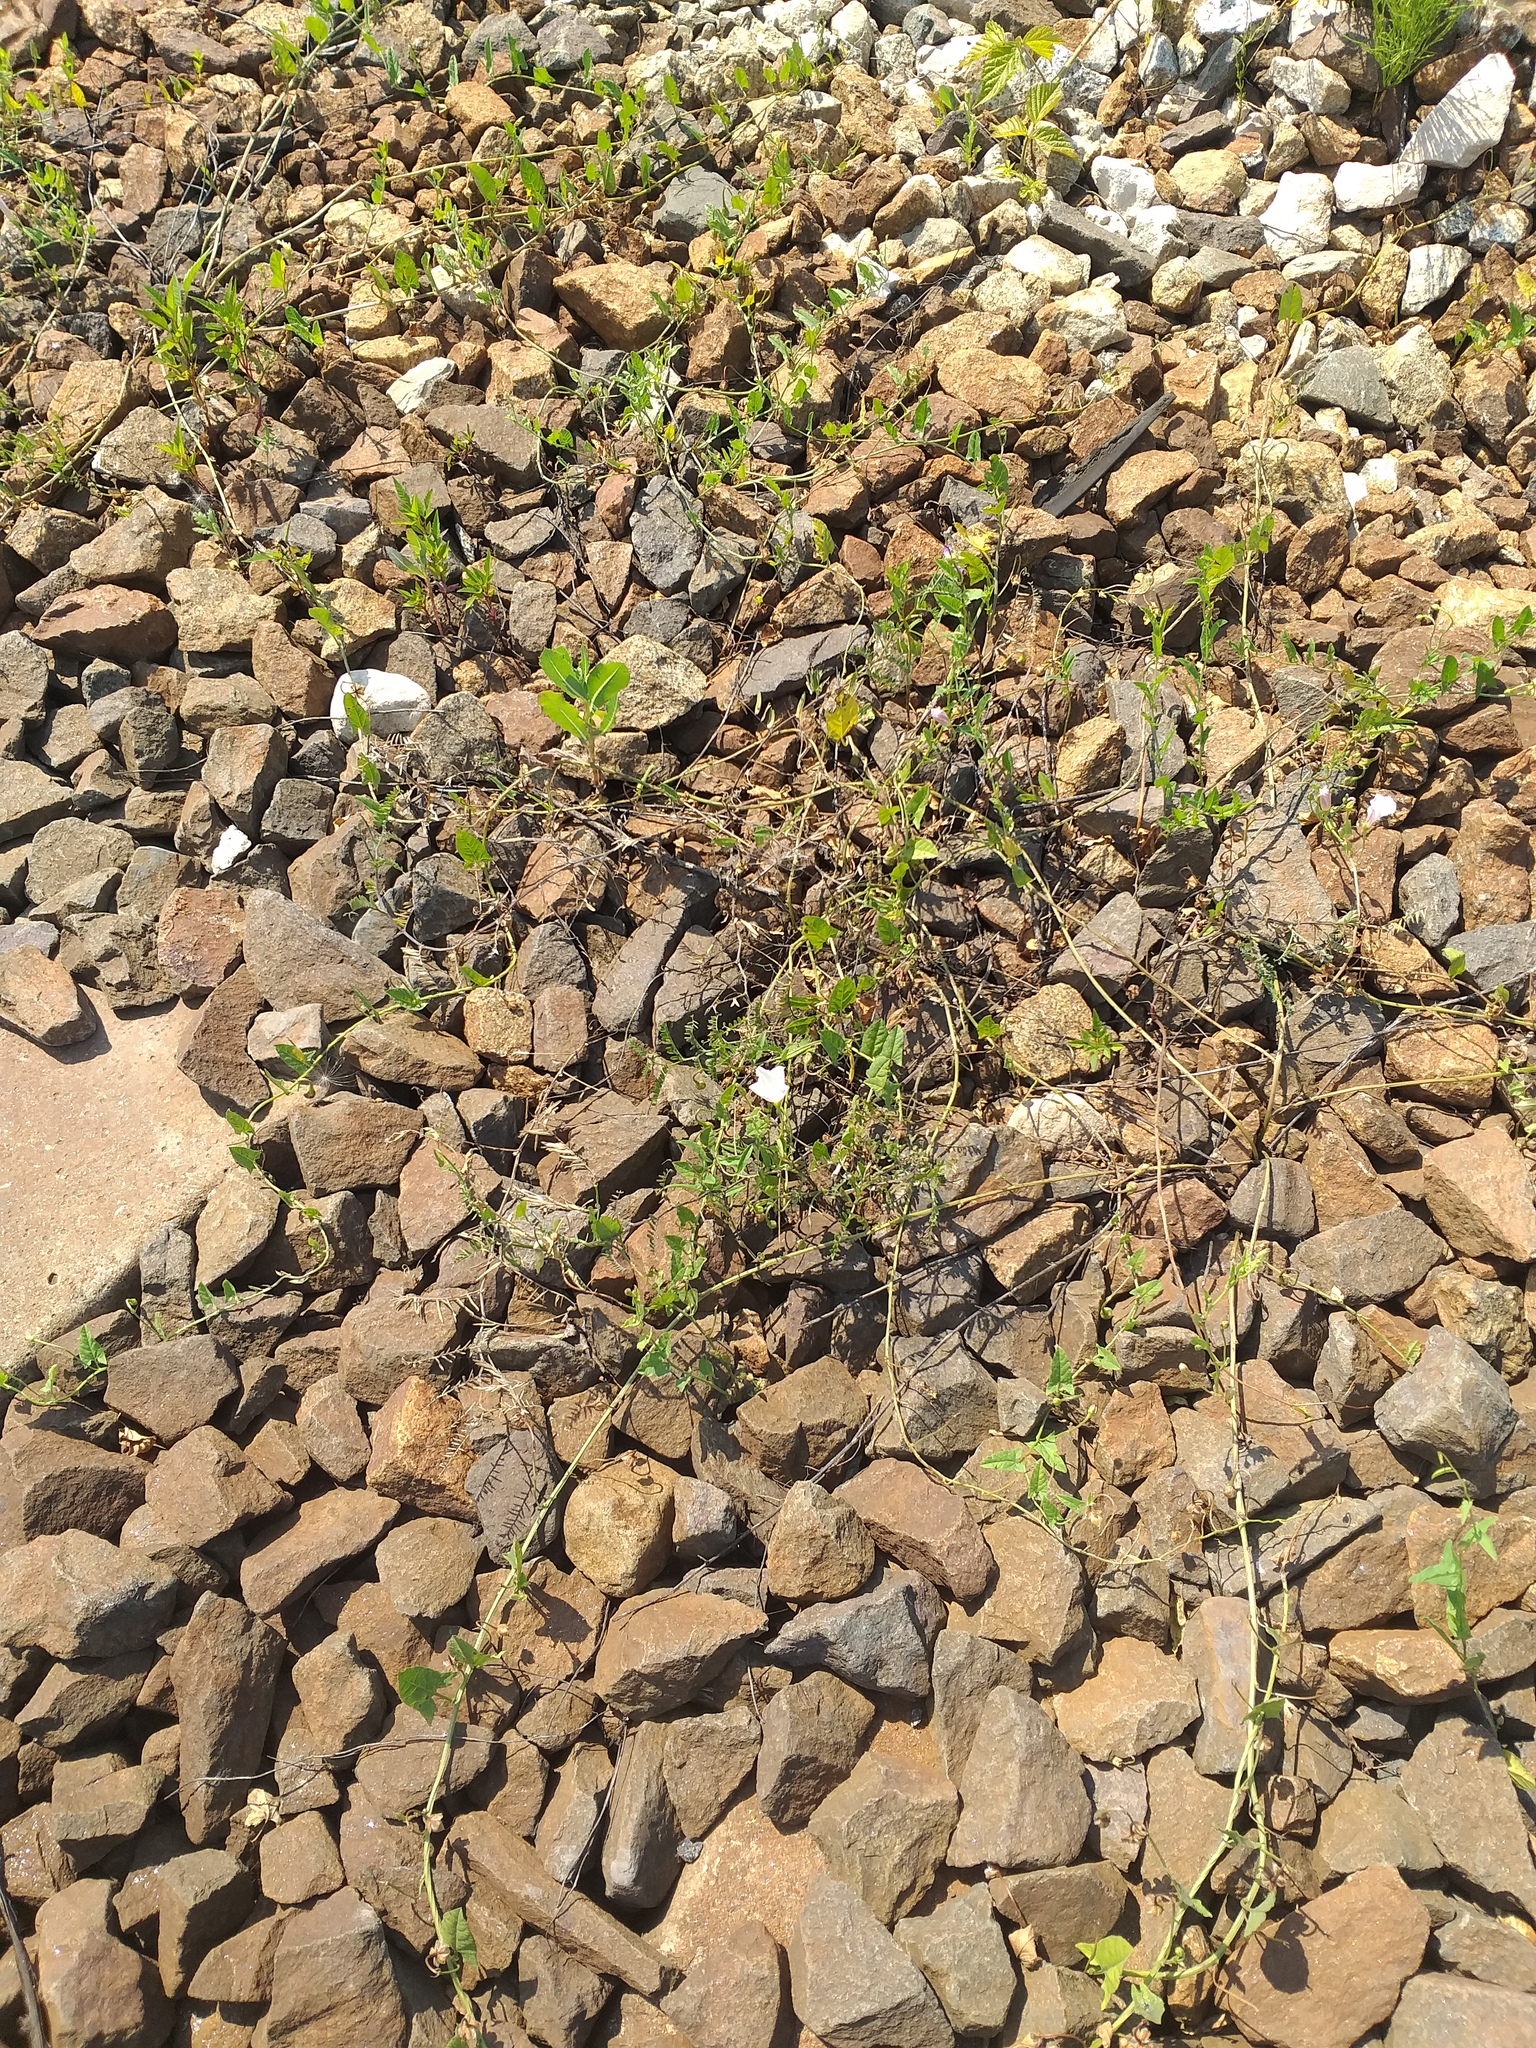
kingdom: Plantae
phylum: Tracheophyta
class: Magnoliopsida
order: Solanales
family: Convolvulaceae
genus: Convolvulus
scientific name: Convolvulus arvensis
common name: Field bindweed
